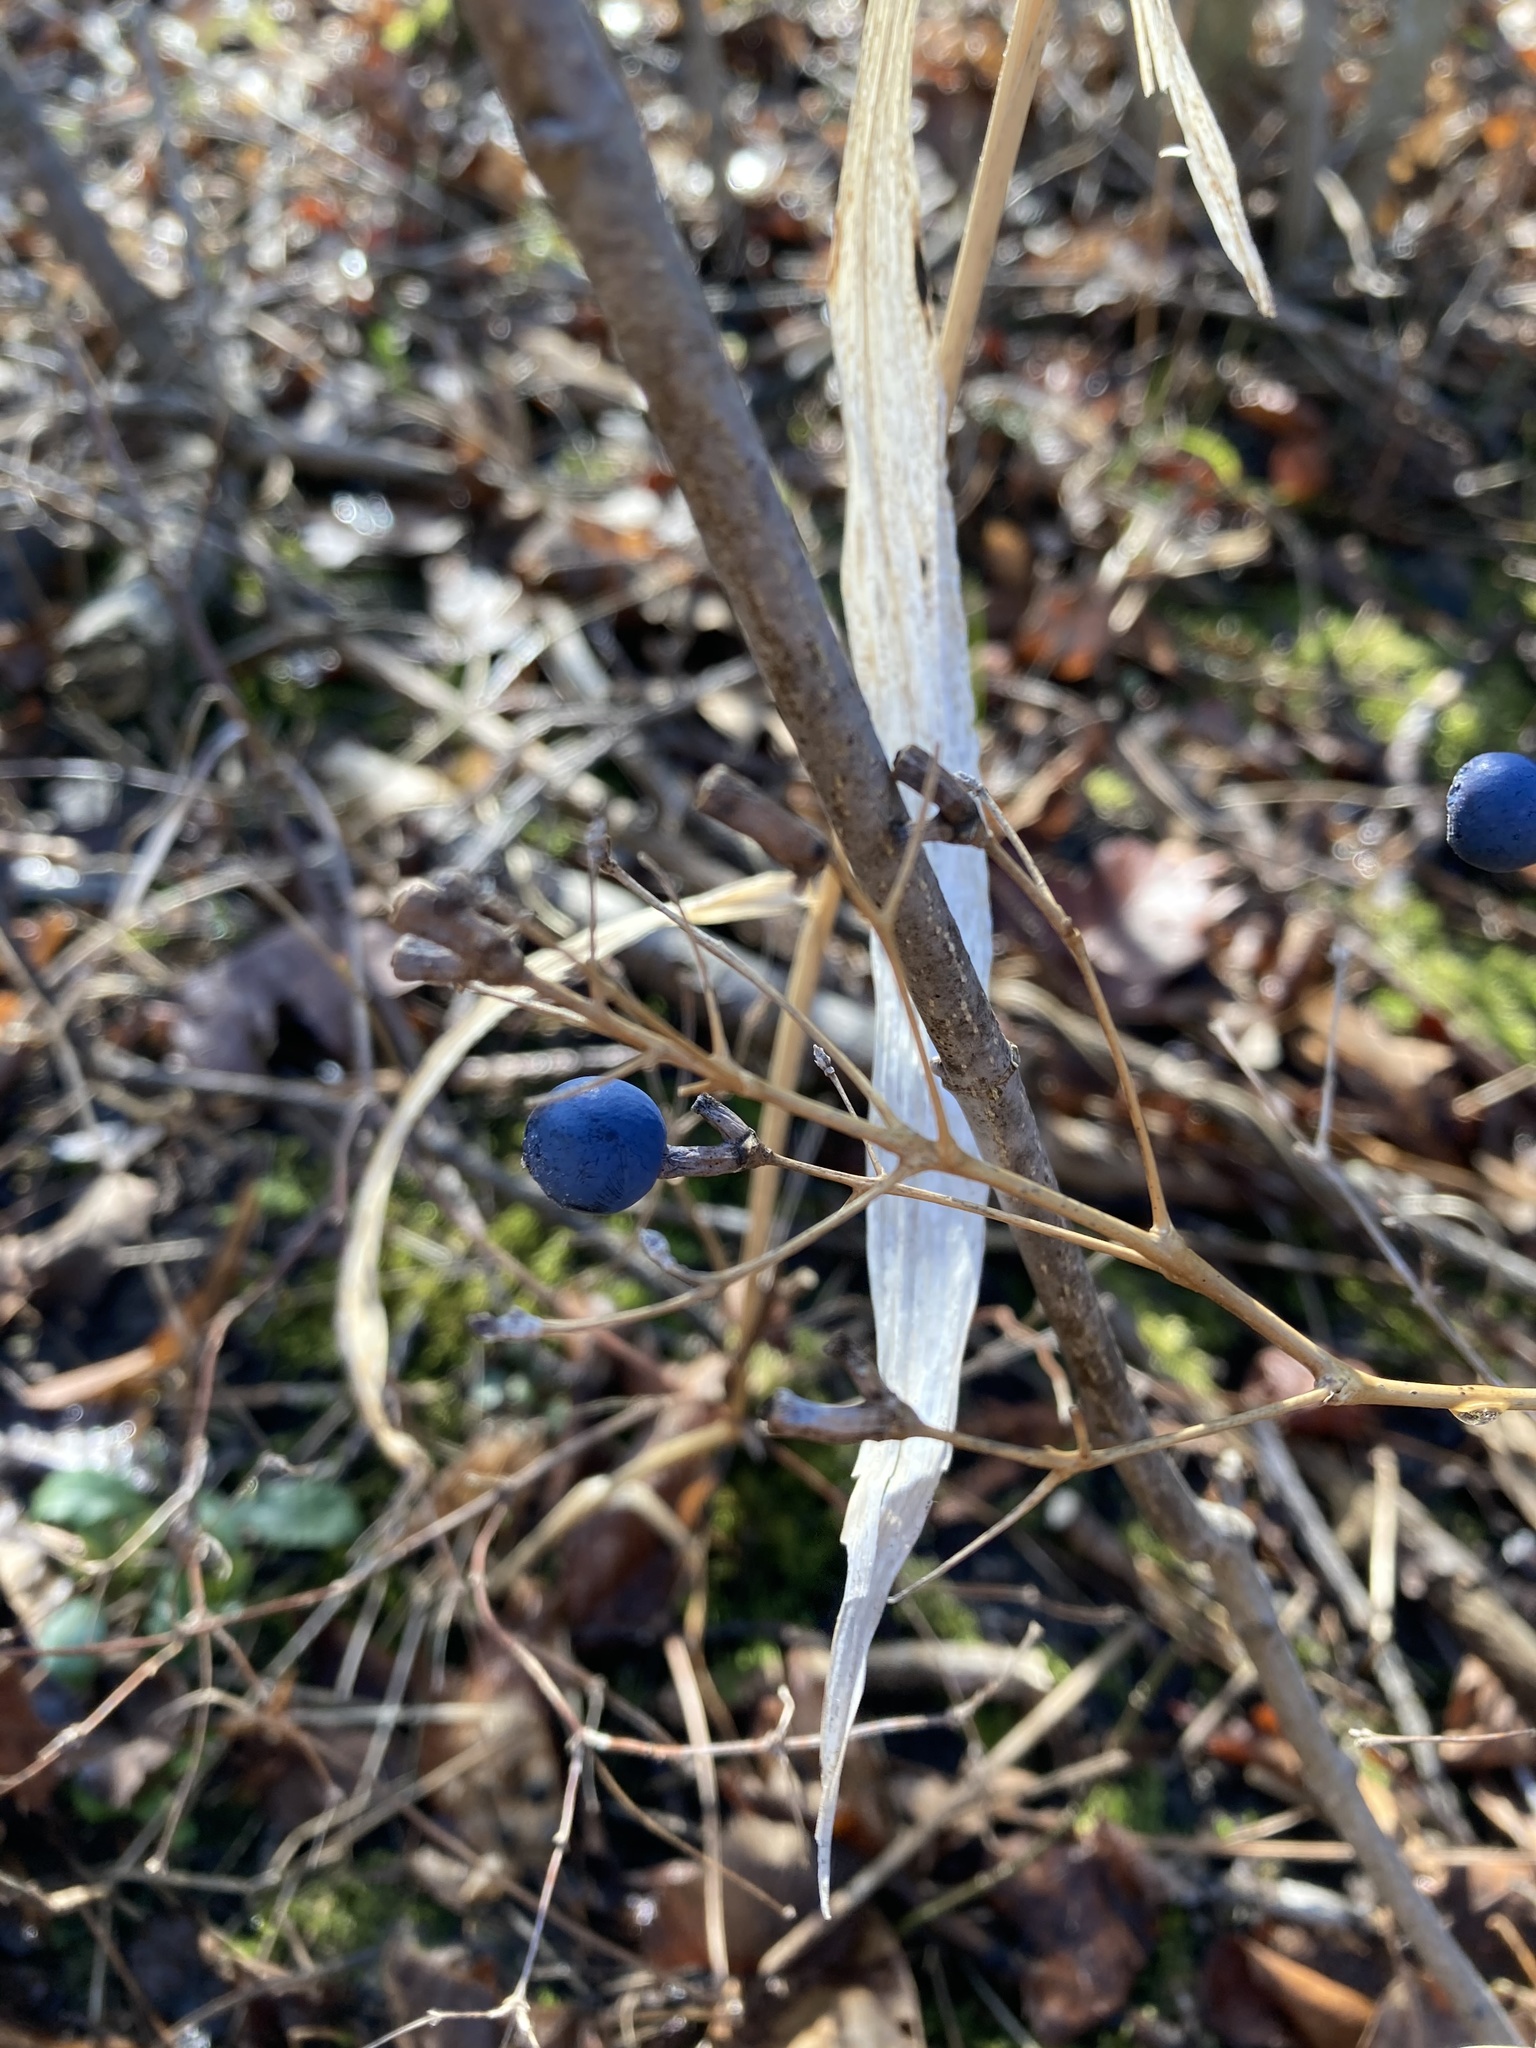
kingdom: Plantae
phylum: Tracheophyta
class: Magnoliopsida
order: Ranunculales
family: Berberidaceae
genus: Caulophyllum
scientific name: Caulophyllum thalictroides
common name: Blue cohosh
